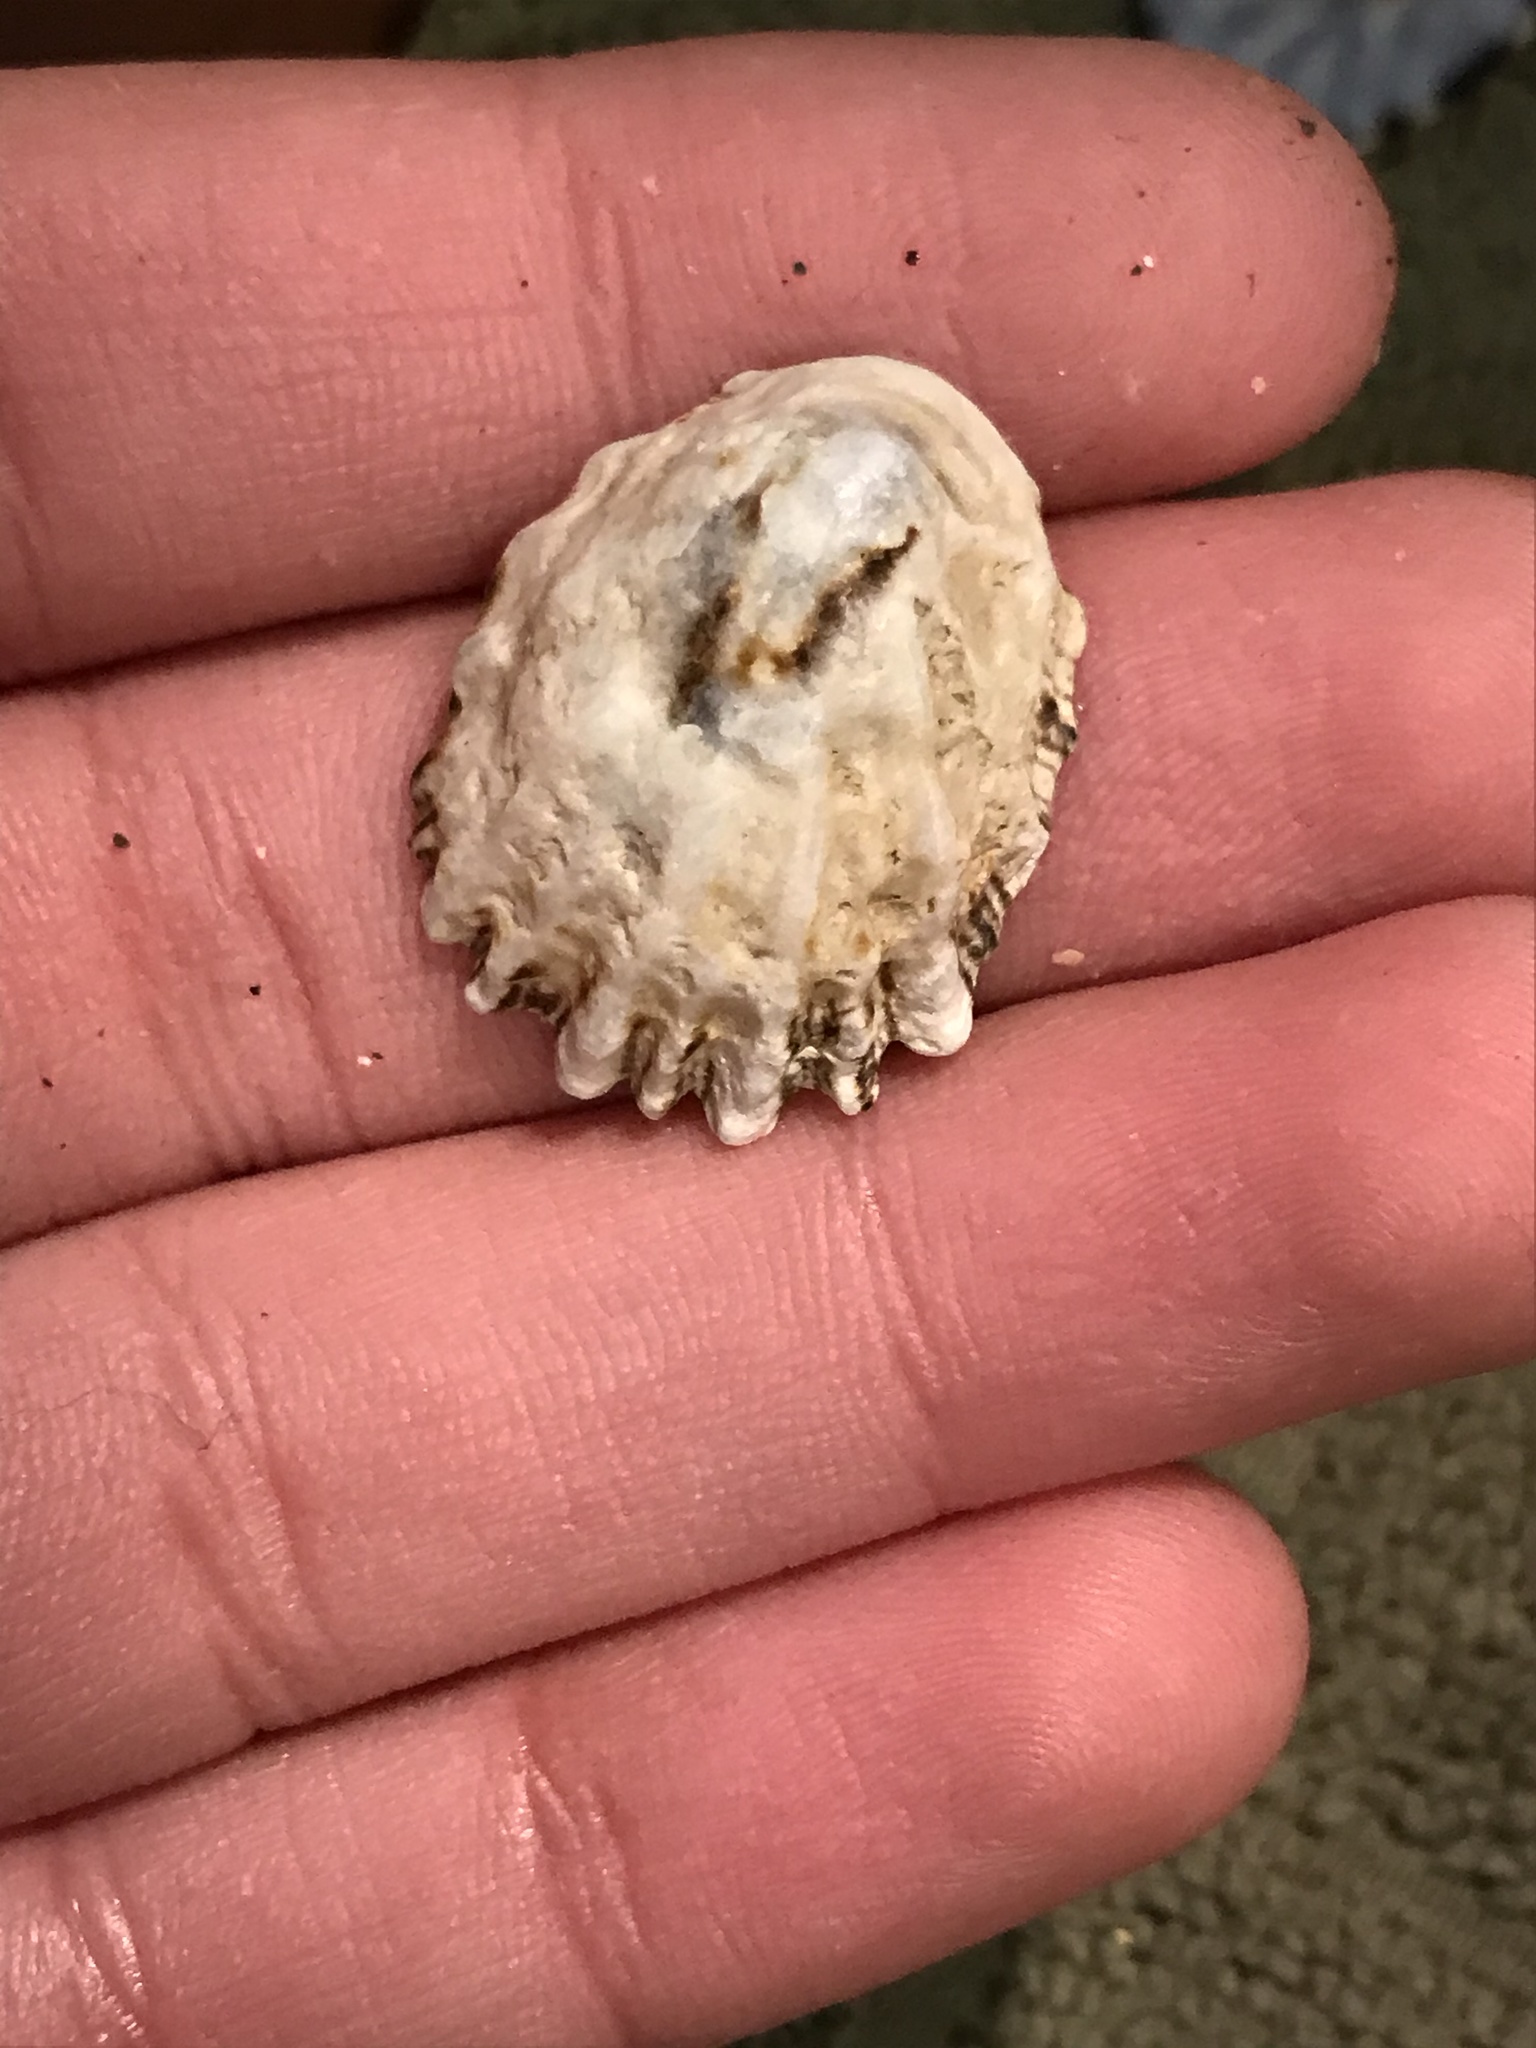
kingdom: Animalia
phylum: Mollusca
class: Gastropoda
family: Lottiidae
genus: Lottia
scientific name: Lottia scabra
